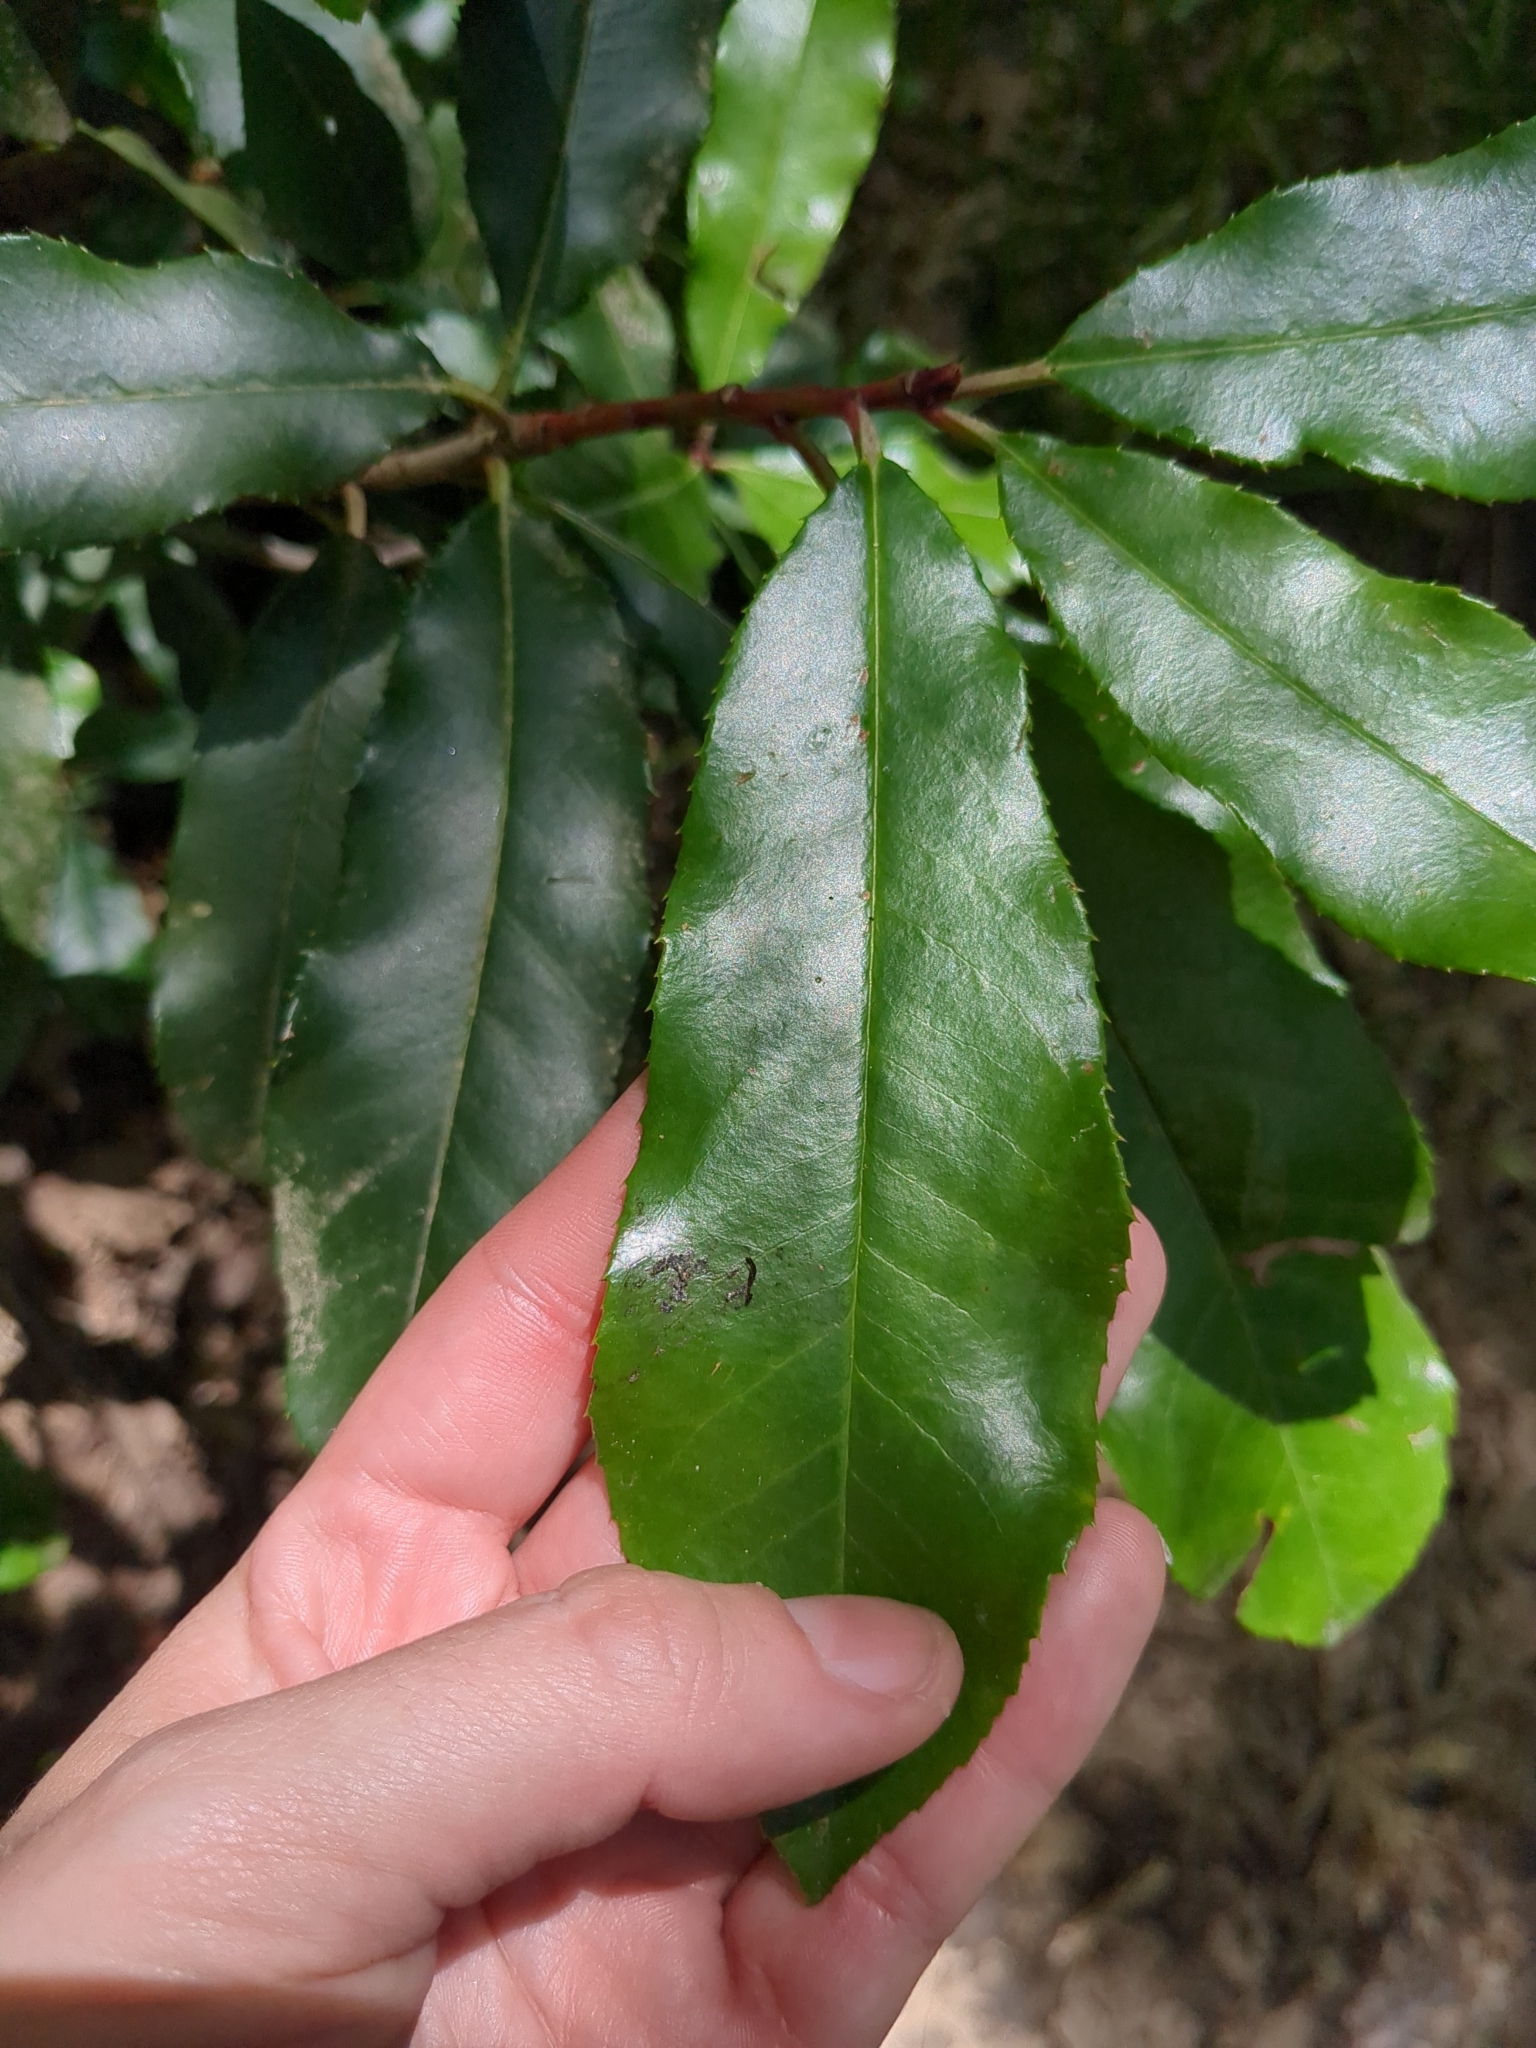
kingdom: Plantae
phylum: Tracheophyta
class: Magnoliopsida
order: Rosales
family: Rosaceae
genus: Photinia
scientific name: Photinia serratifolia
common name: Taiwanese photinia
